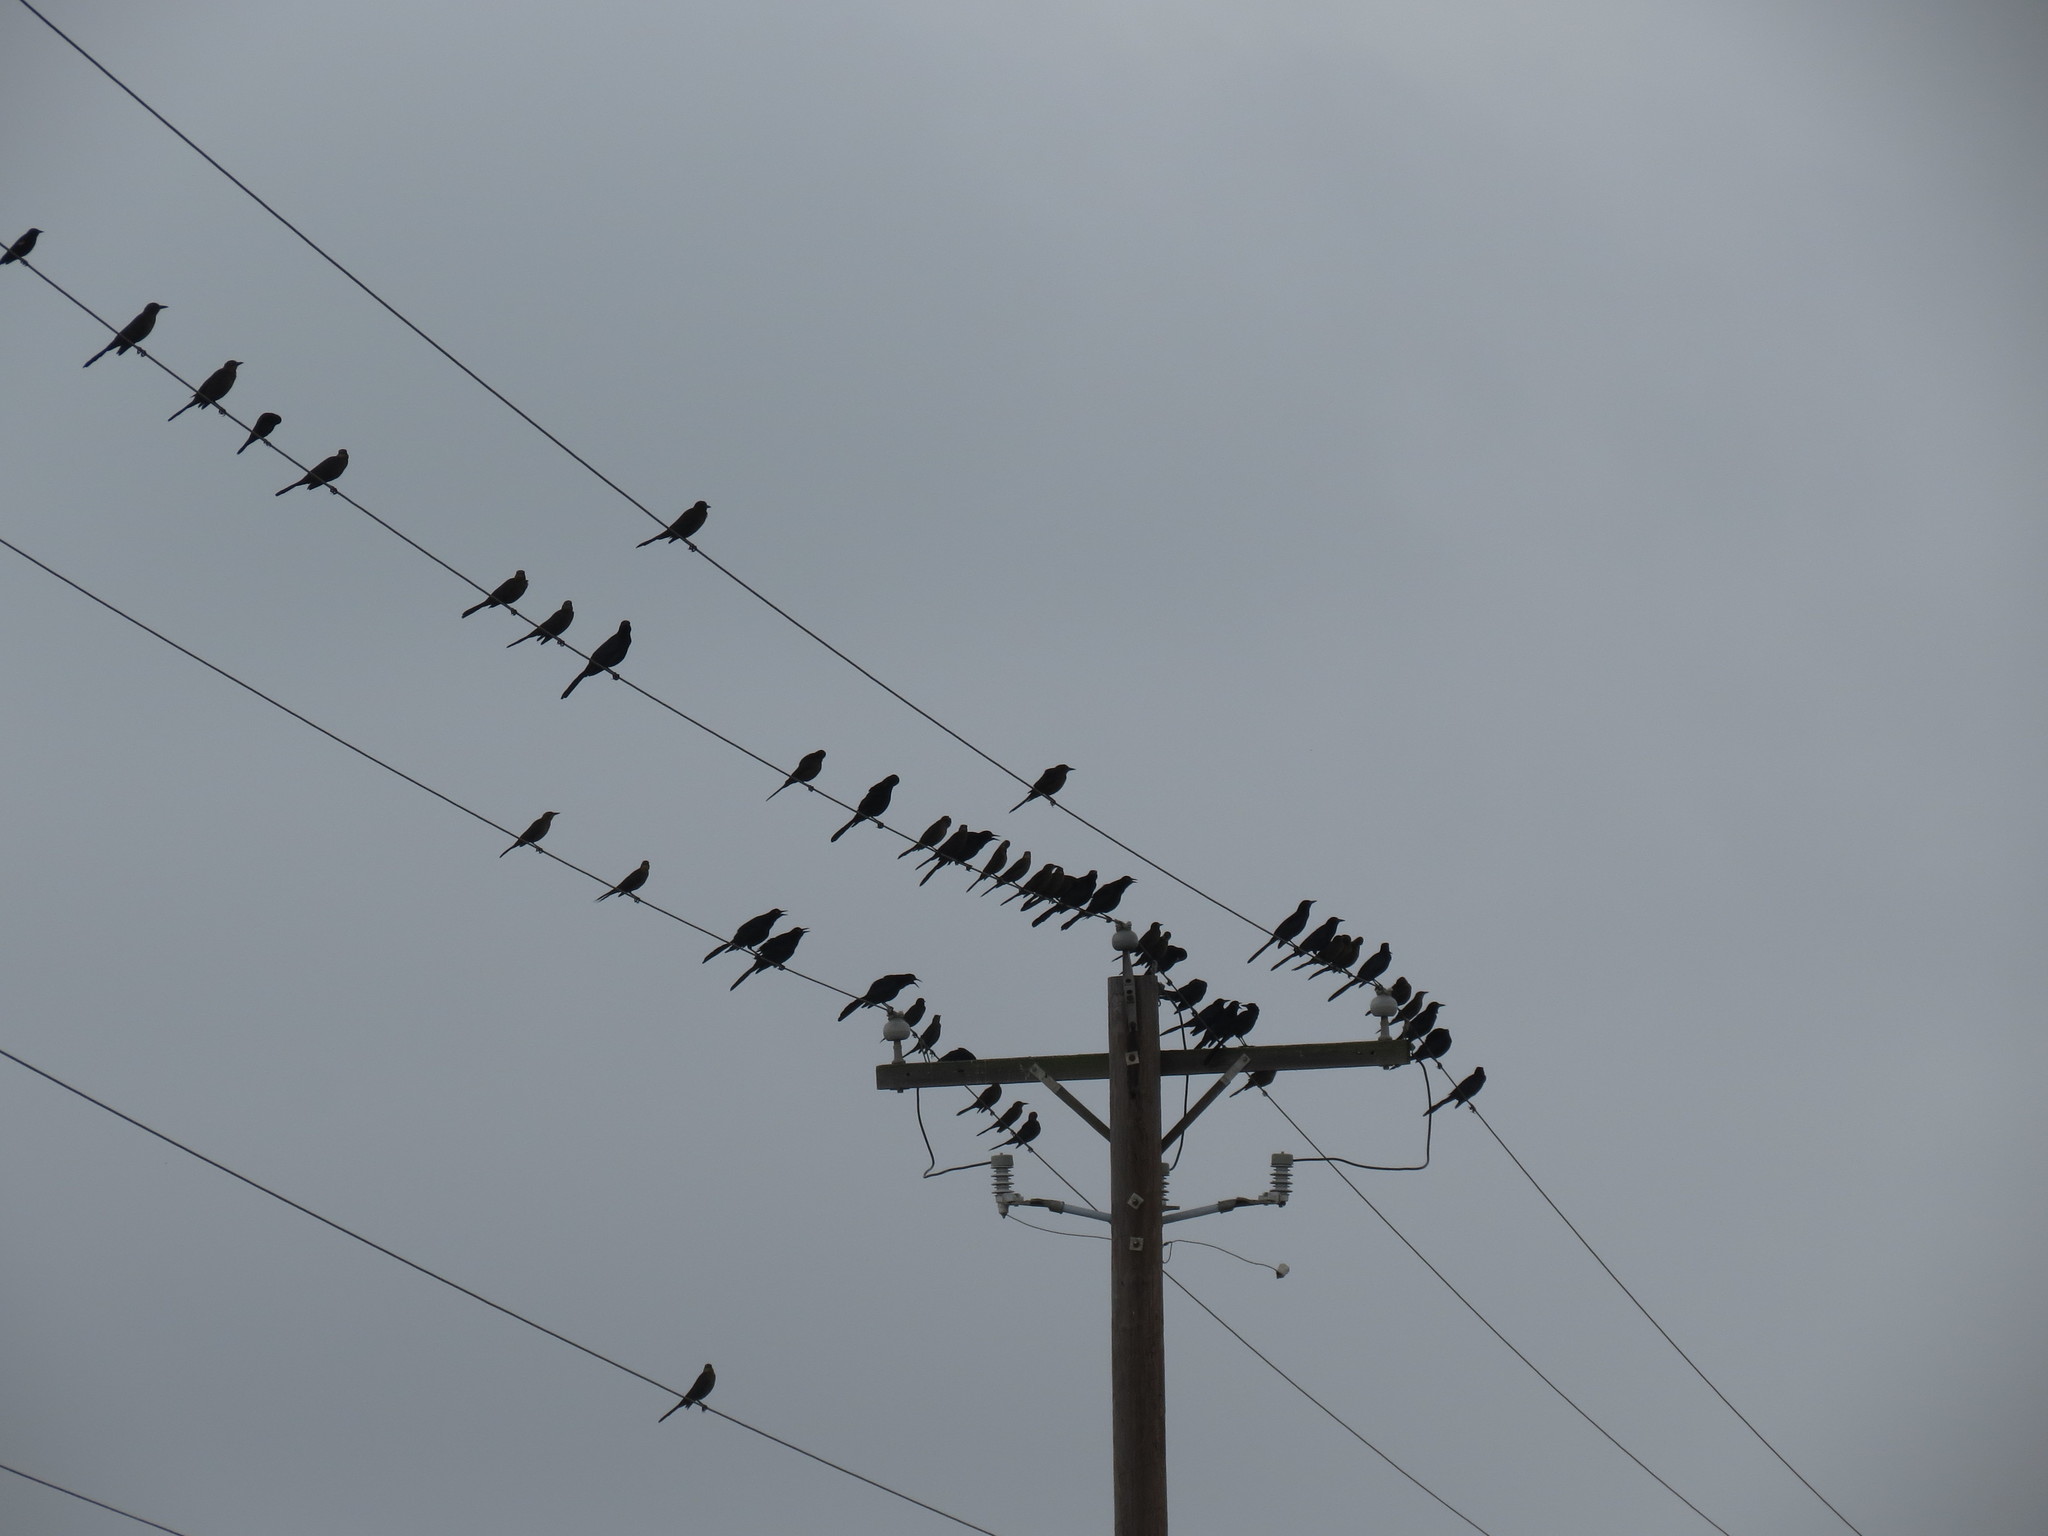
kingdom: Animalia
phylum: Chordata
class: Aves
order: Passeriformes
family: Icteridae
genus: Quiscalus
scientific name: Quiscalus mexicanus
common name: Great-tailed grackle
